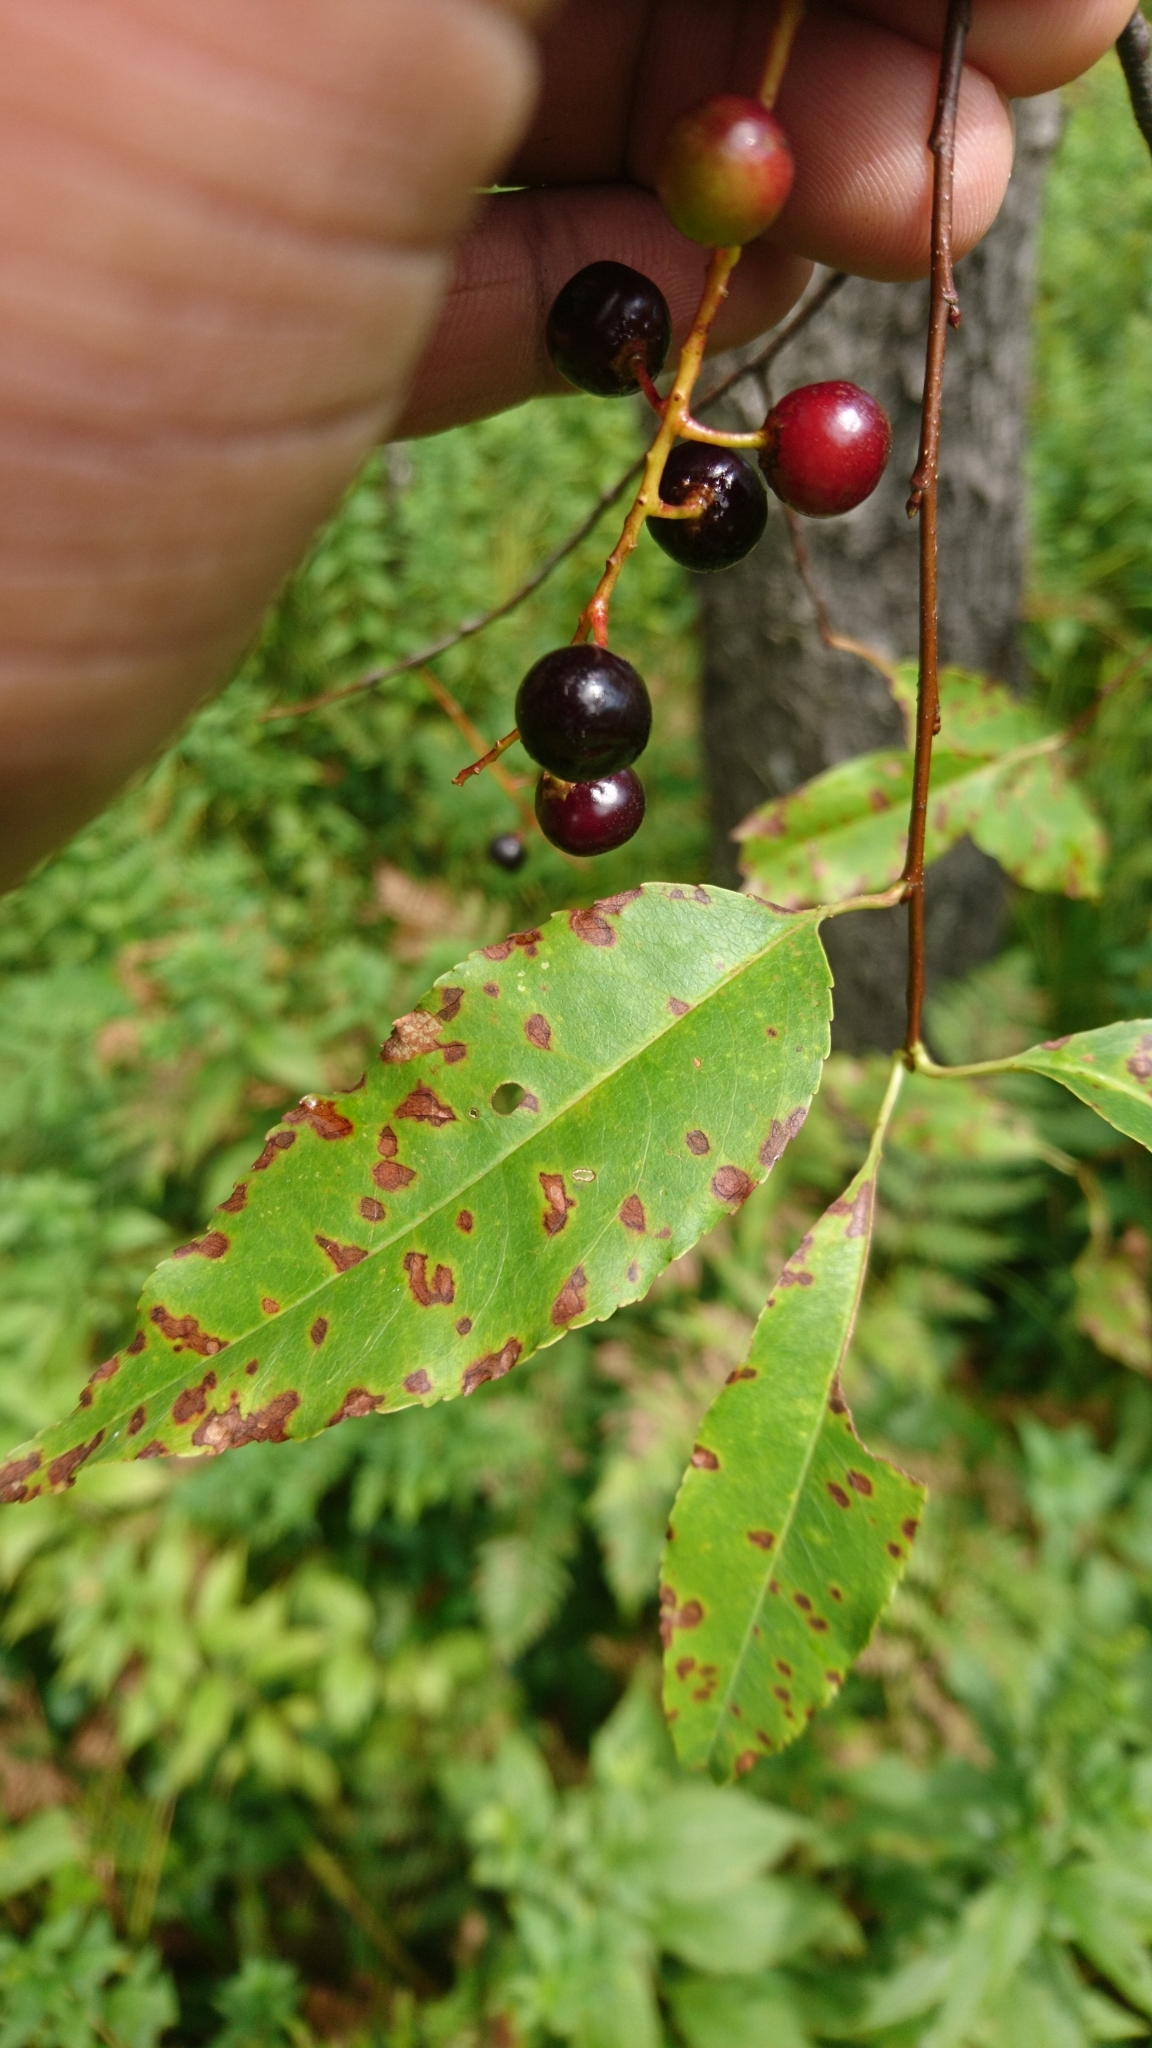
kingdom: Plantae
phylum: Tracheophyta
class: Magnoliopsida
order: Rosales
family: Rosaceae
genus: Prunus
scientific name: Prunus serotina
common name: Black cherry
